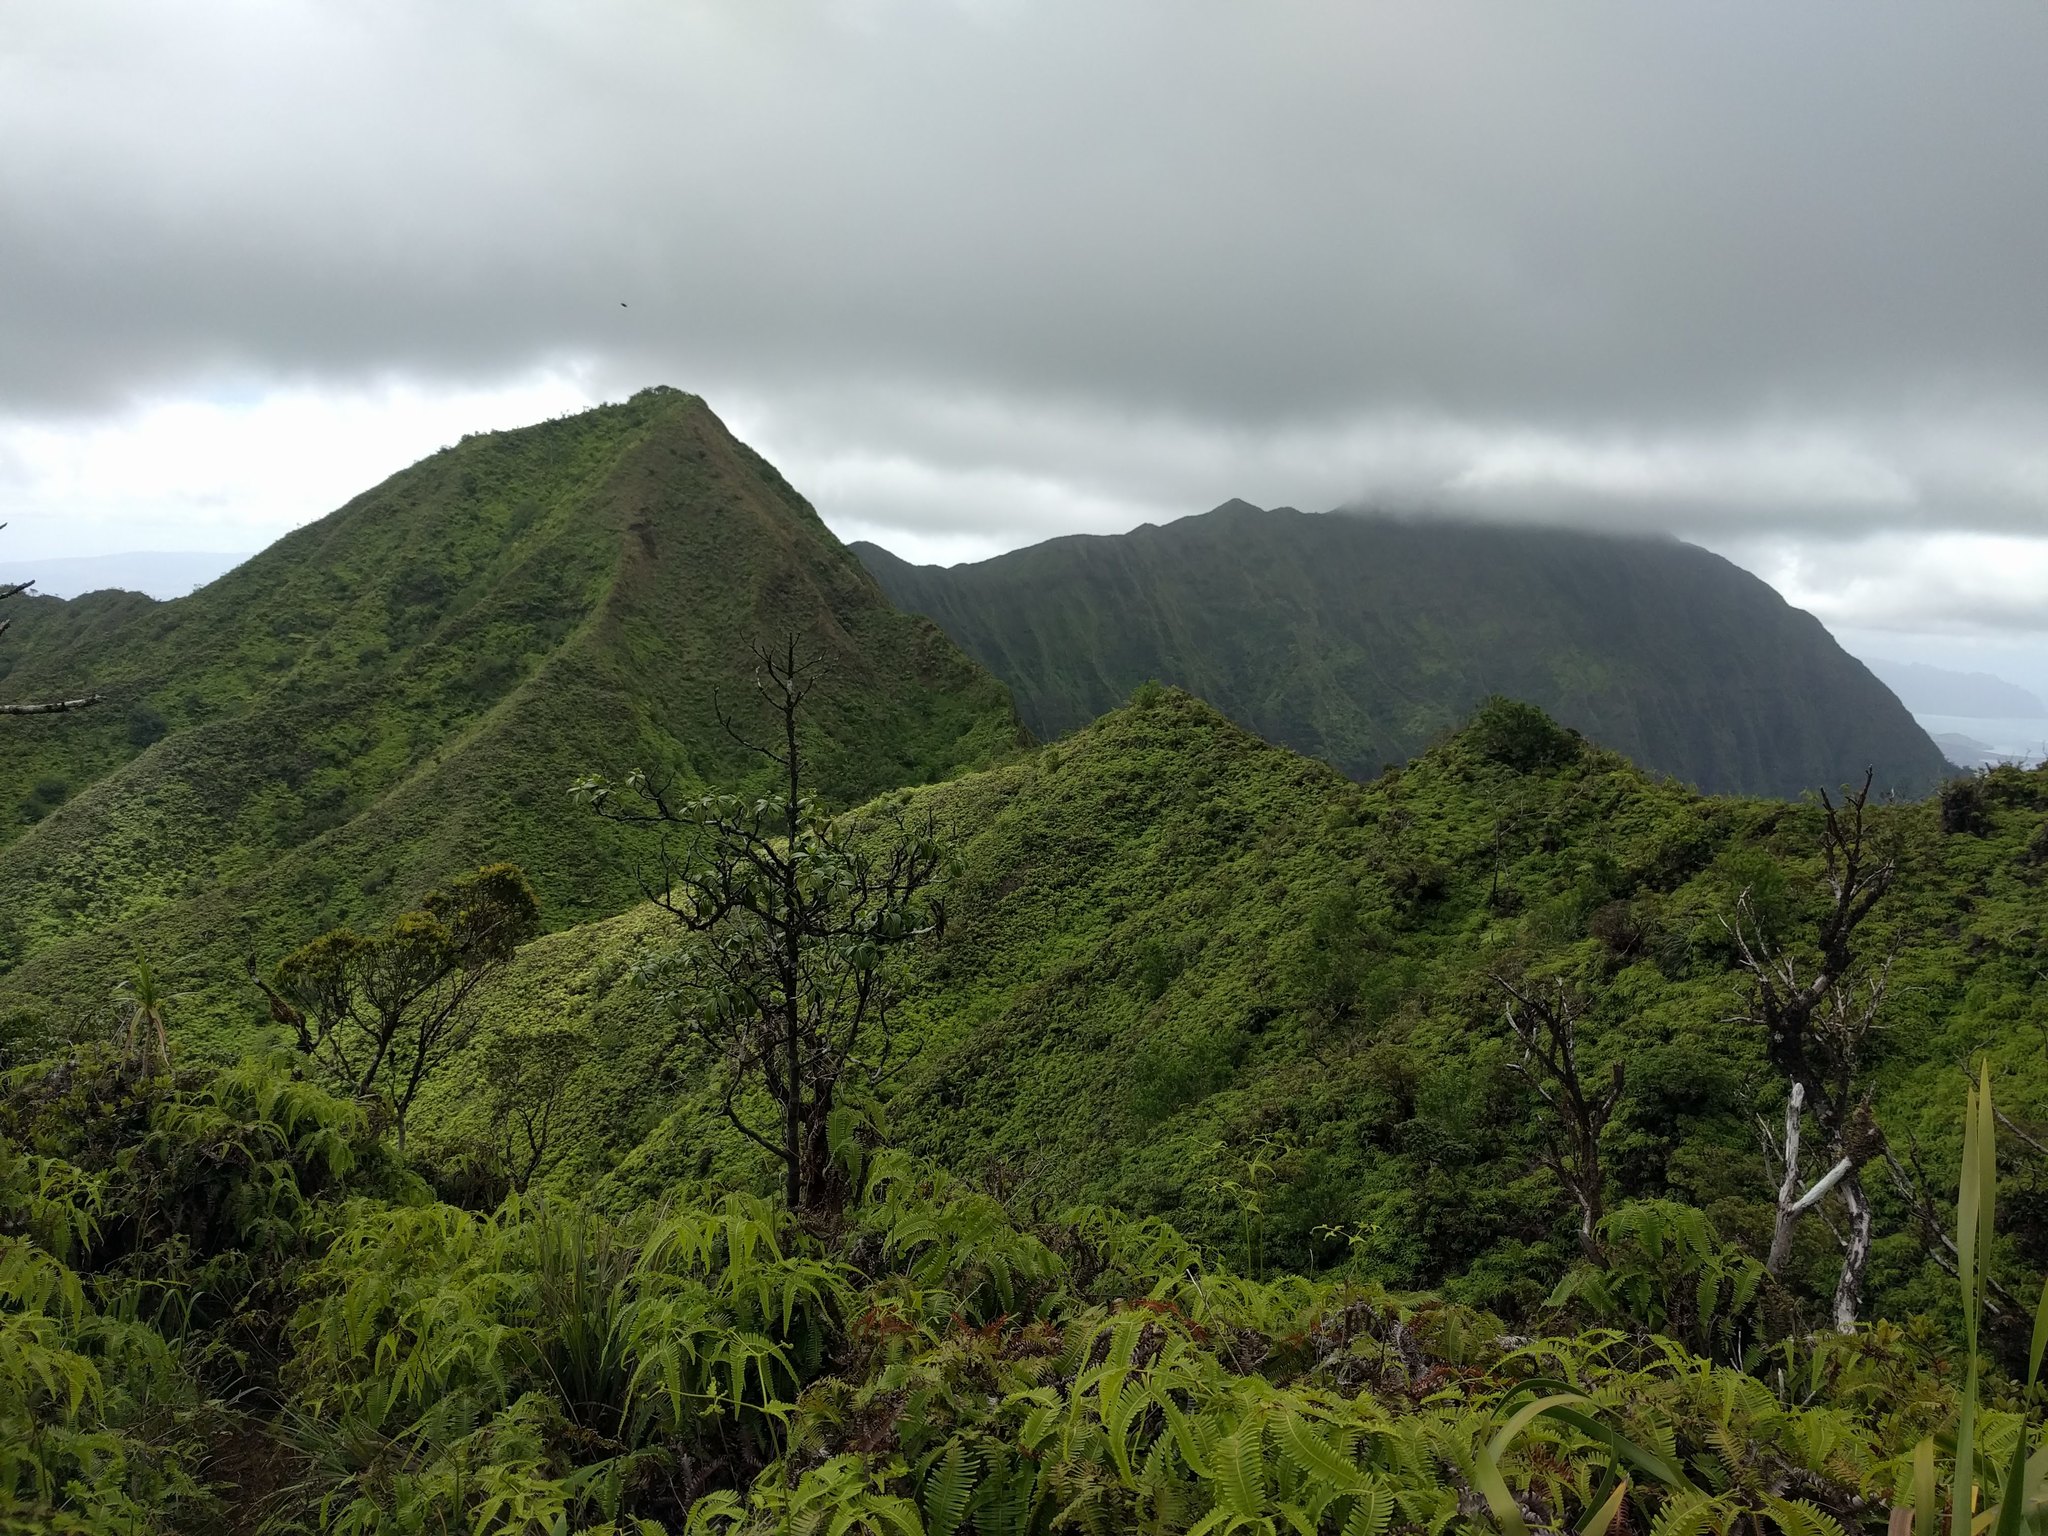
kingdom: Plantae
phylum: Tracheophyta
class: Polypodiopsida
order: Gleicheniales
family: Gleicheniaceae
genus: Dicranopteris
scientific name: Dicranopteris linearis
